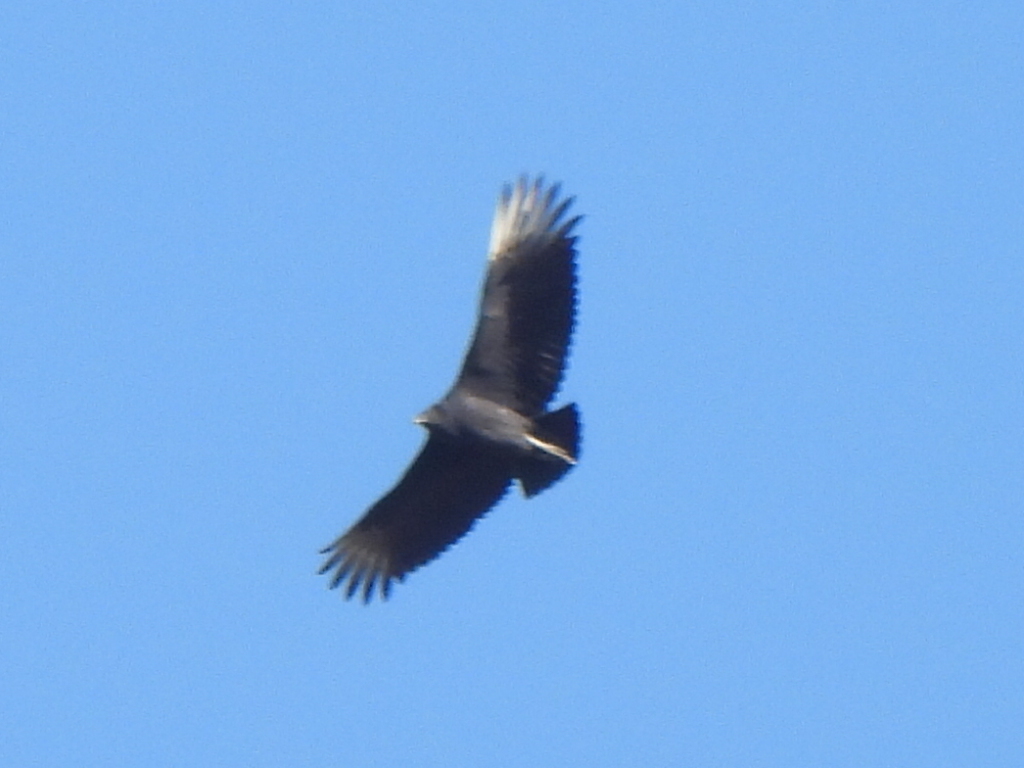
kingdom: Animalia
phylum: Chordata
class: Aves
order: Accipitriformes
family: Cathartidae
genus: Coragyps
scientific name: Coragyps atratus
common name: Black vulture
